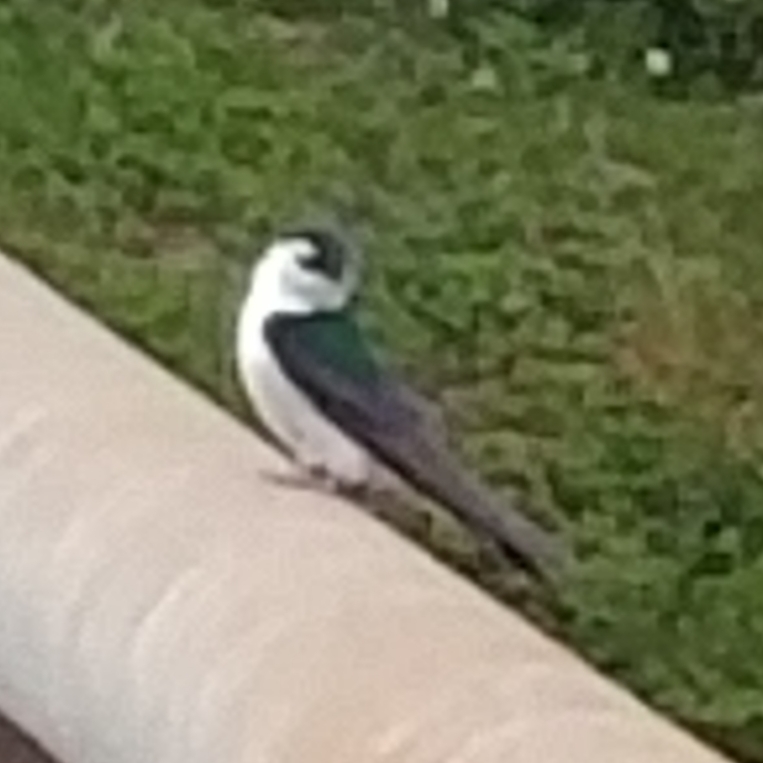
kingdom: Animalia
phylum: Chordata
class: Aves
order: Passeriformes
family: Hirundinidae
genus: Tachycineta
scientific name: Tachycineta thalassina
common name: Violet-green swallow
